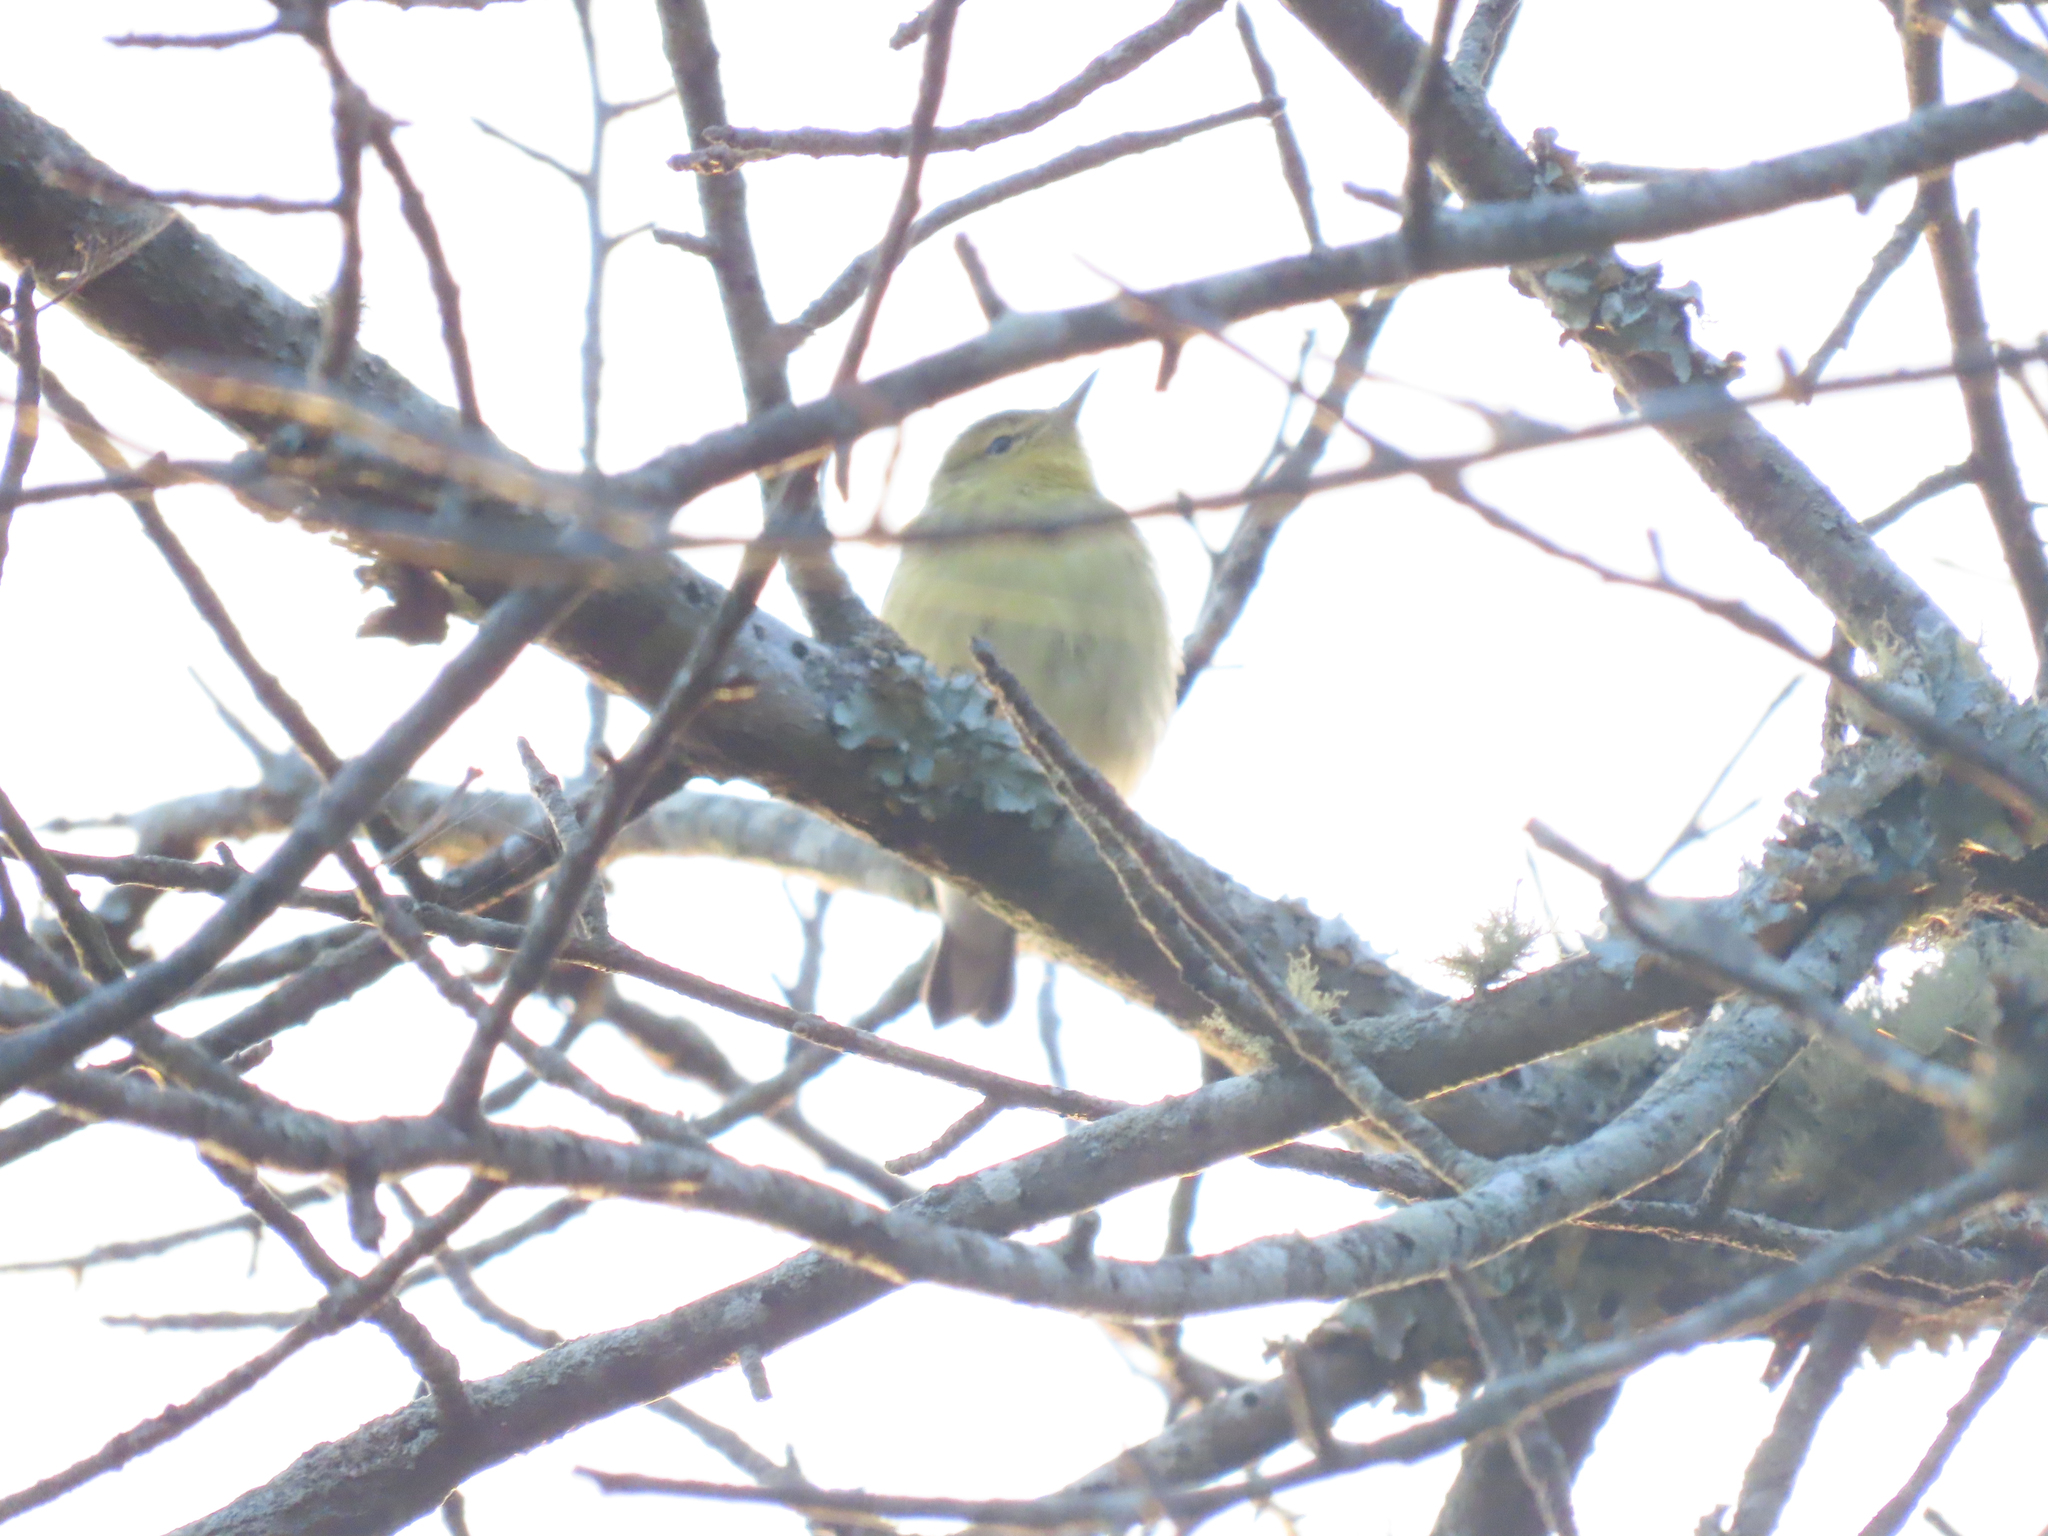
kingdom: Animalia
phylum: Chordata
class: Aves
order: Passeriformes
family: Parulidae
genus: Setophaga
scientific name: Setophaga striata
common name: Blackpoll warbler
